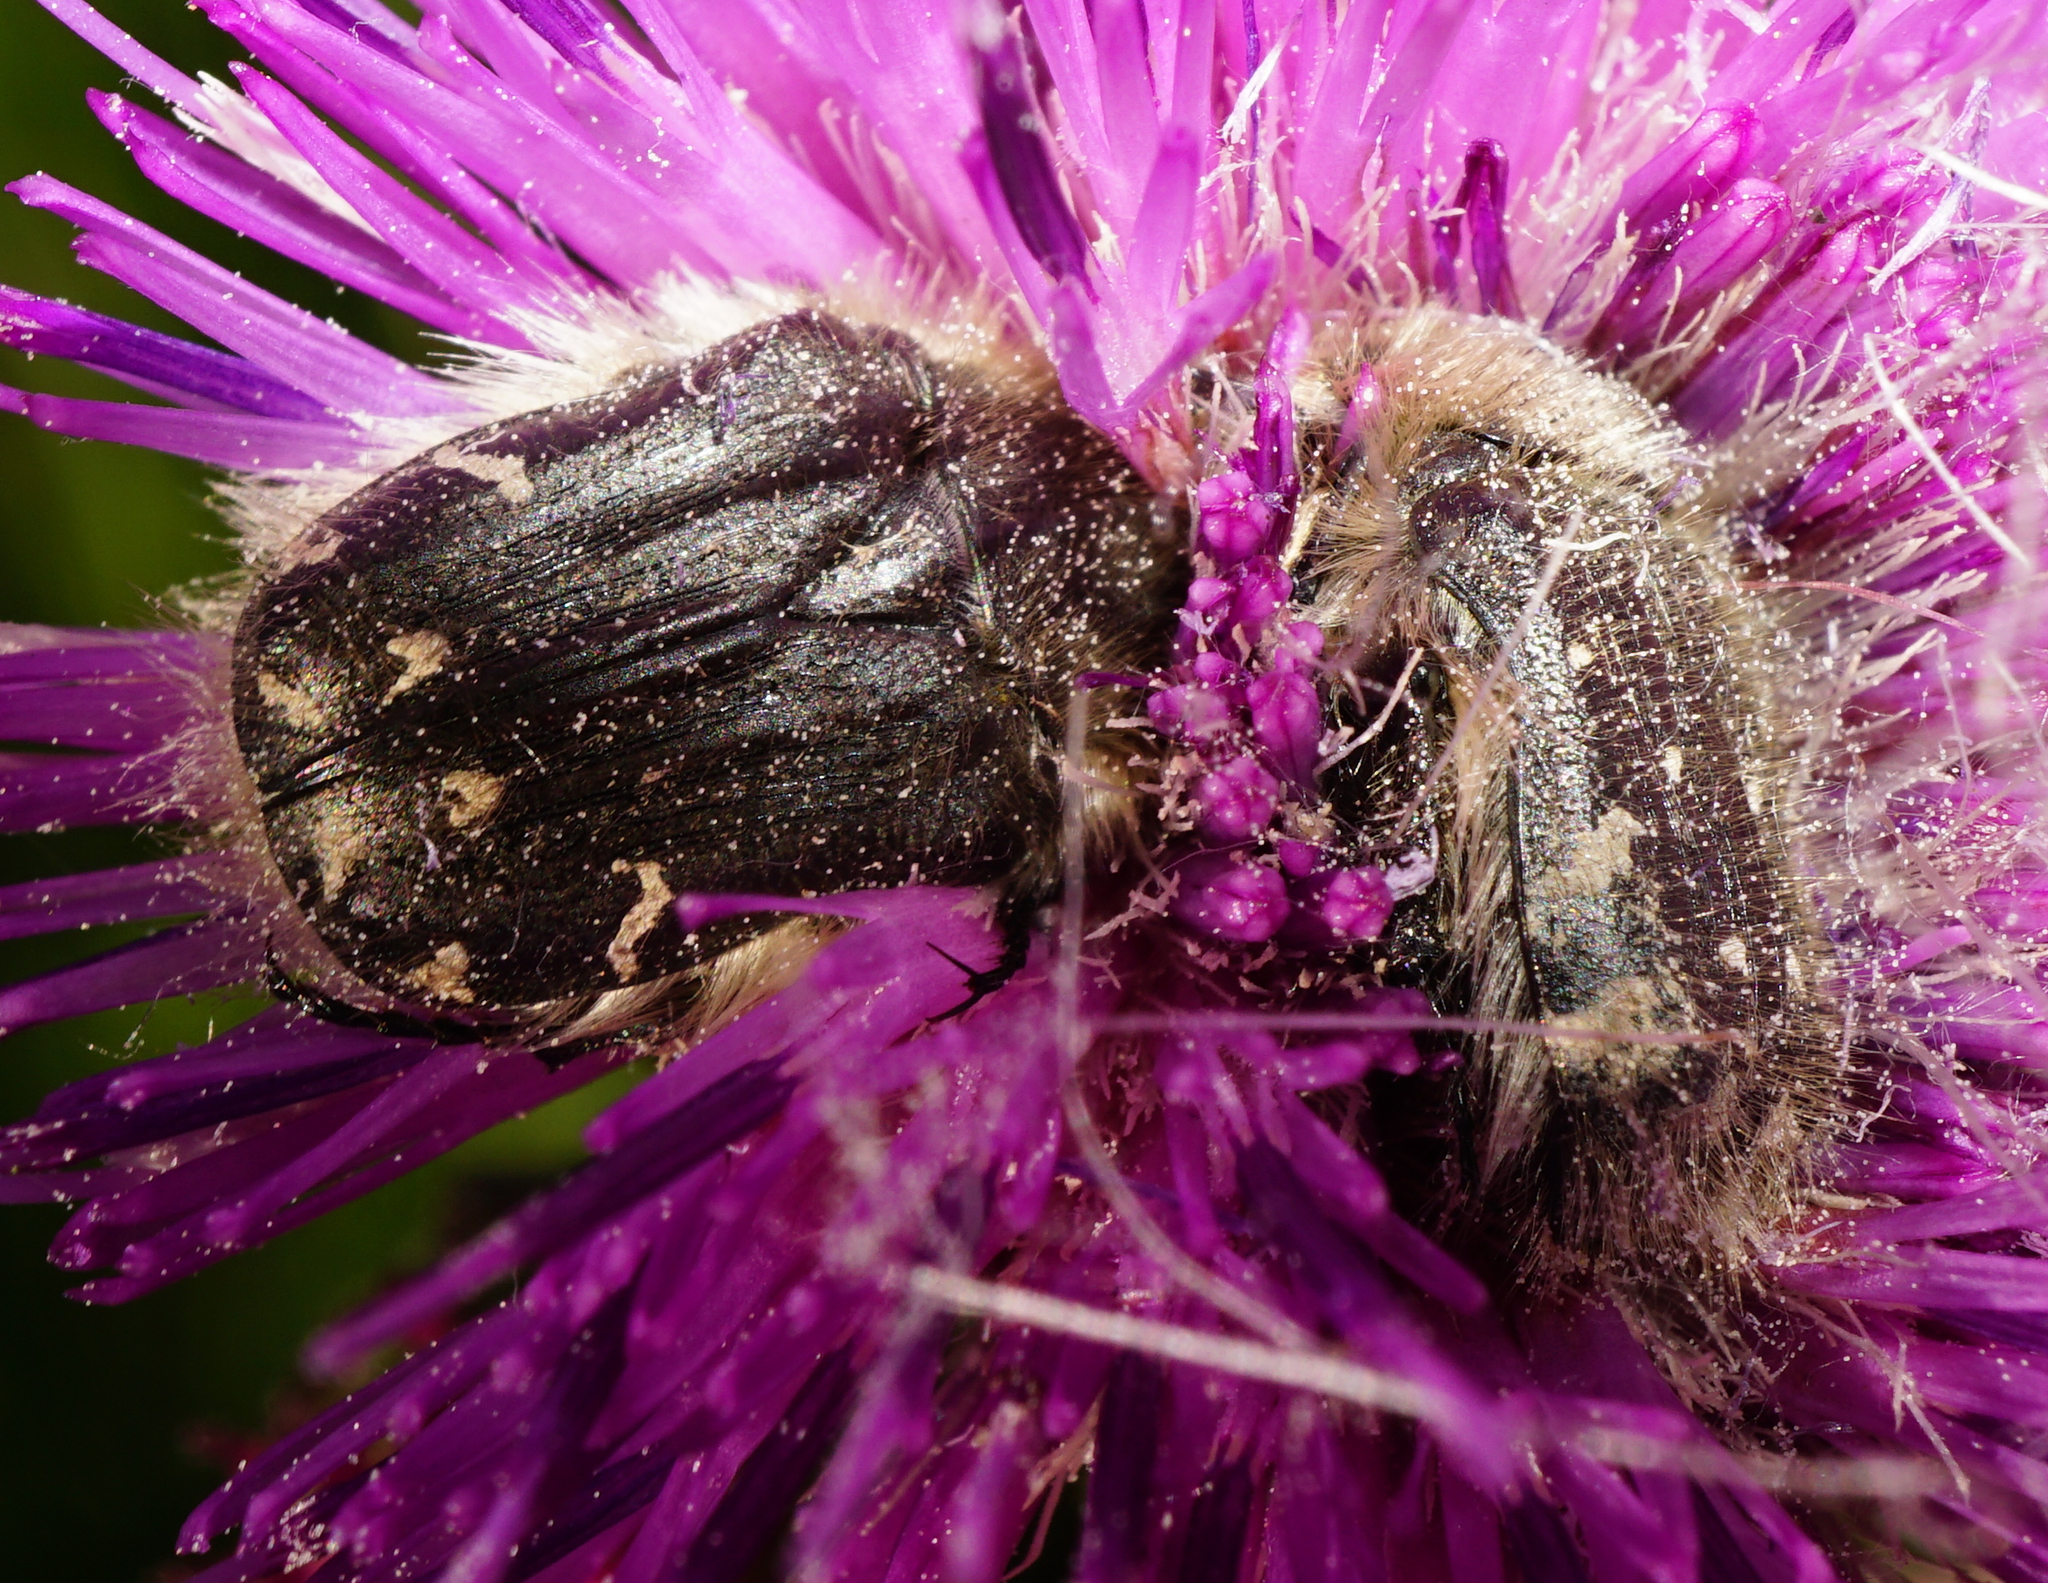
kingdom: Animalia
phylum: Arthropoda
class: Insecta
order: Coleoptera
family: Scarabaeidae
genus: Tropinota
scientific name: Tropinota hirta
